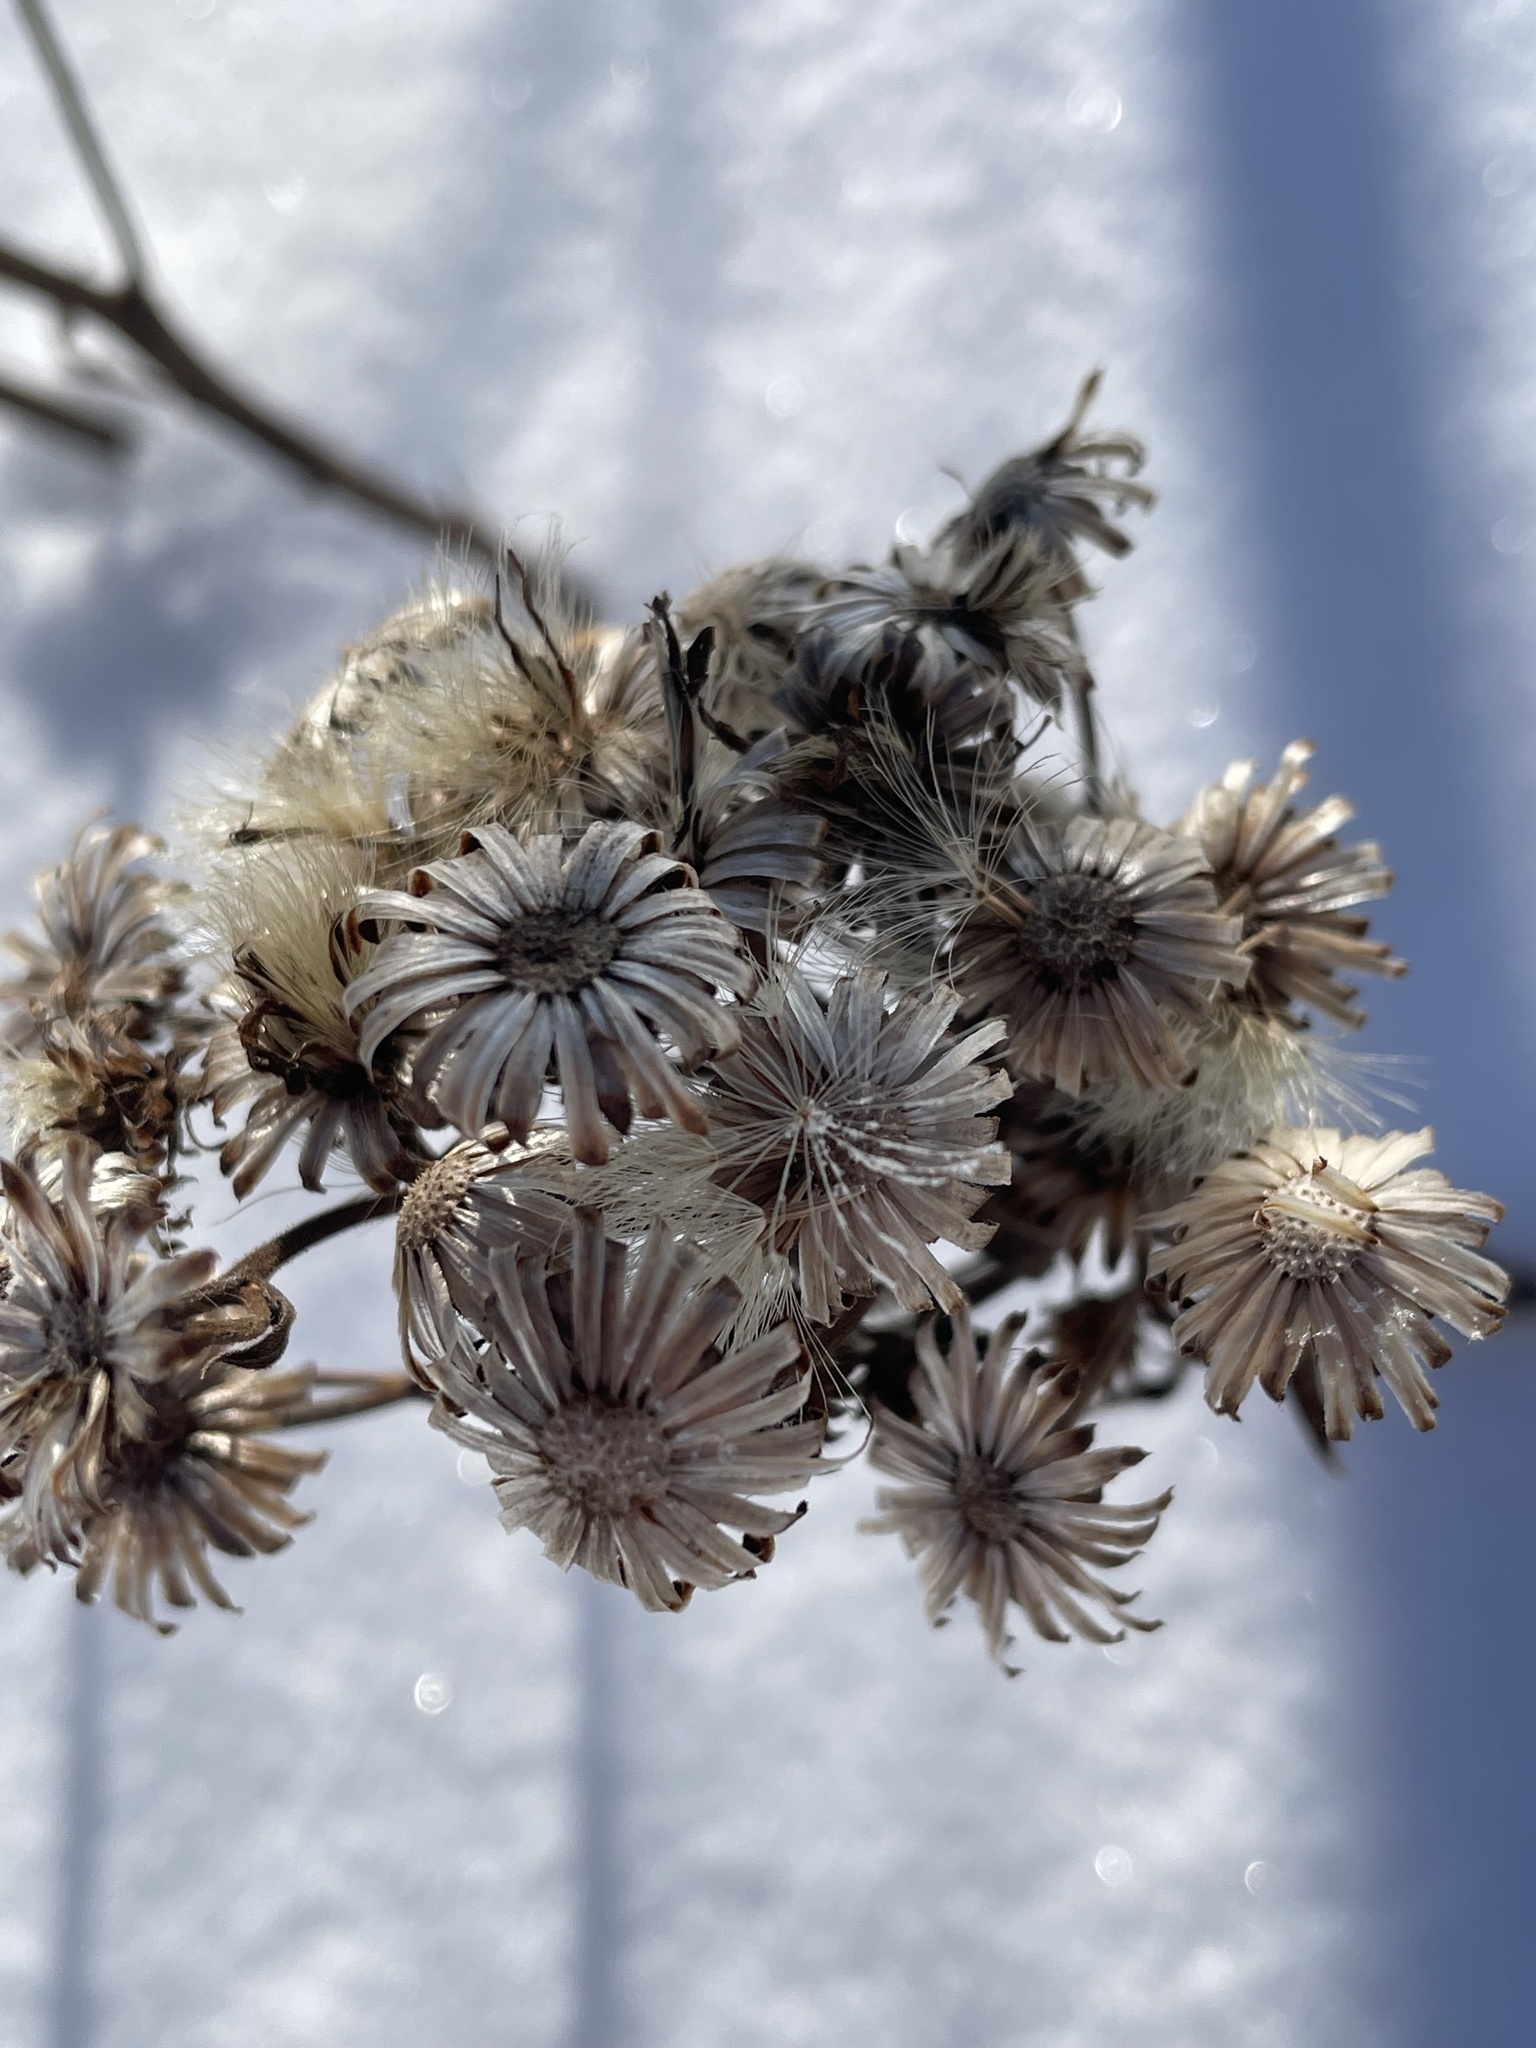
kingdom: Plantae
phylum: Tracheophyta
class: Magnoliopsida
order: Asterales
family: Asteraceae
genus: Solidago
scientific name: Solidago rigida
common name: Rigid goldenrod
